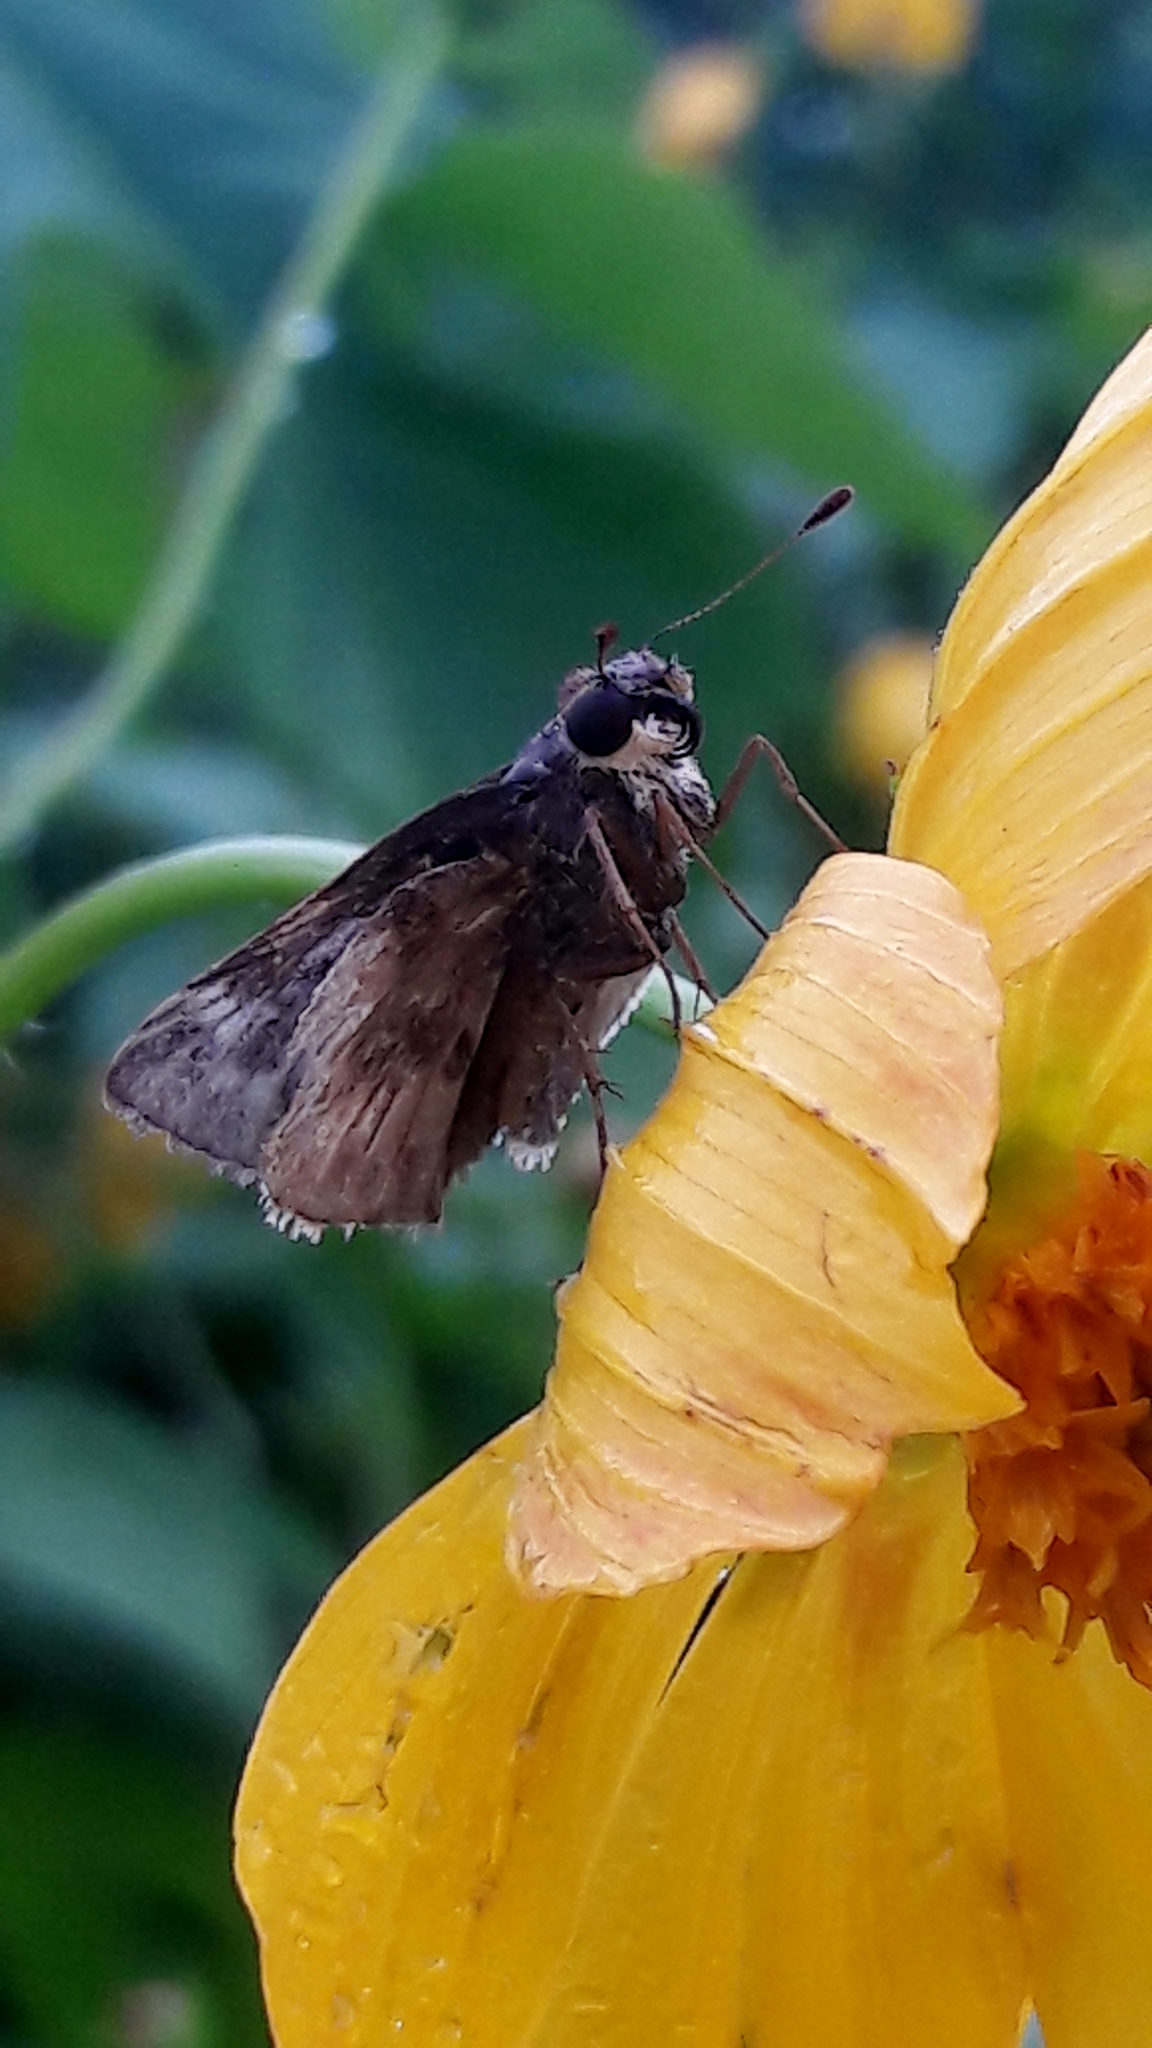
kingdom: Animalia
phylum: Arthropoda
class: Insecta
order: Lepidoptera
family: Hesperiidae
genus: Pompeius
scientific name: Pompeius pompeius
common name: Pompeius skipper
